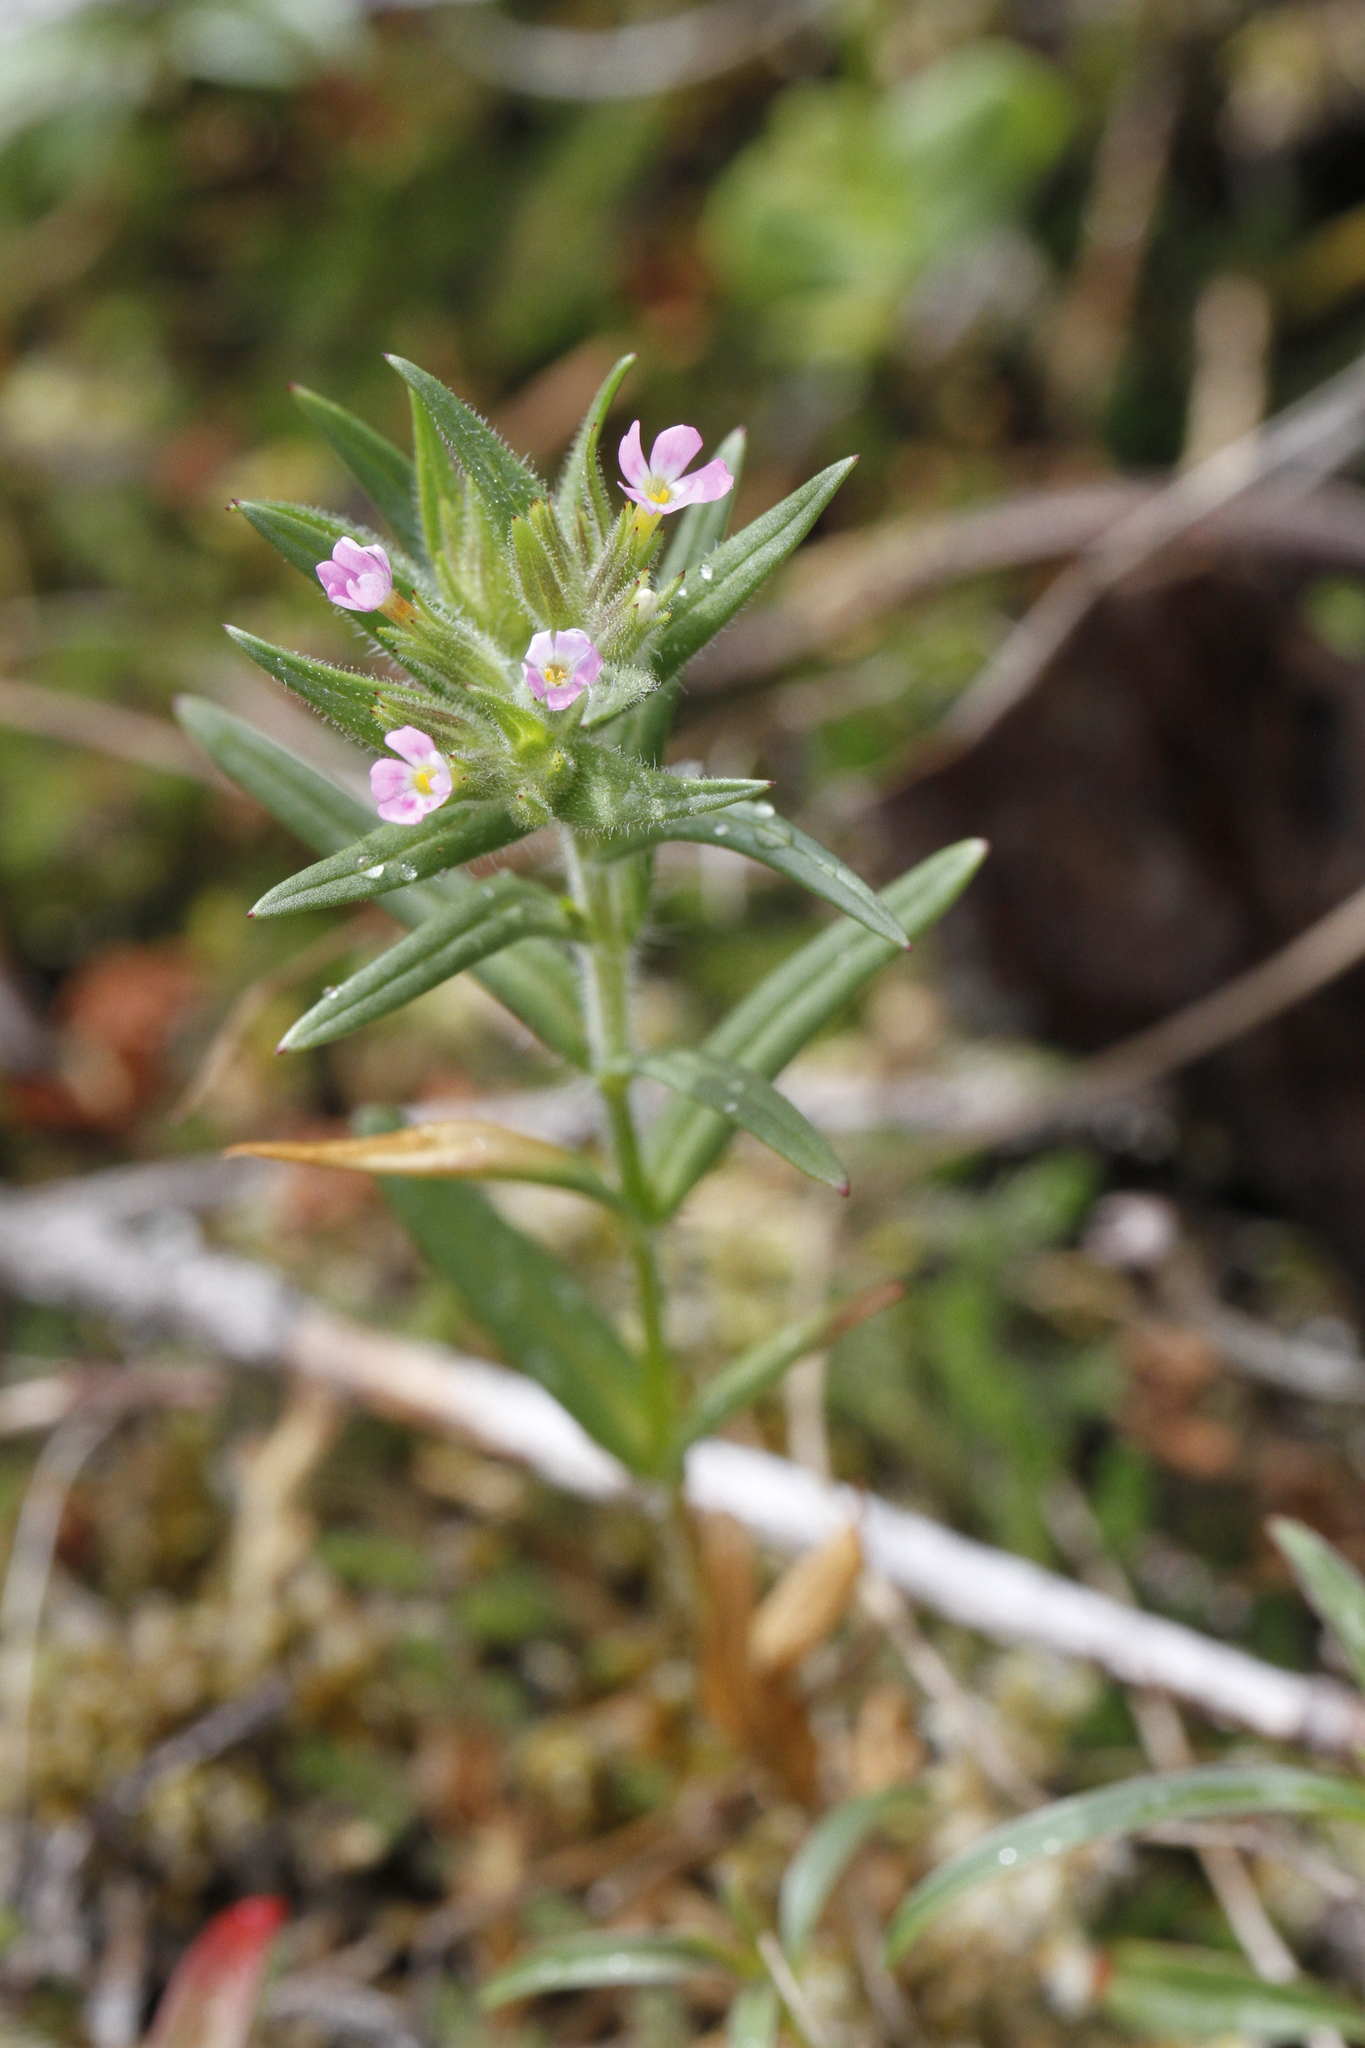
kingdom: Plantae
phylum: Tracheophyta
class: Magnoliopsida
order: Ericales
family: Polemoniaceae
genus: Phlox
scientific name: Phlox gracilis
